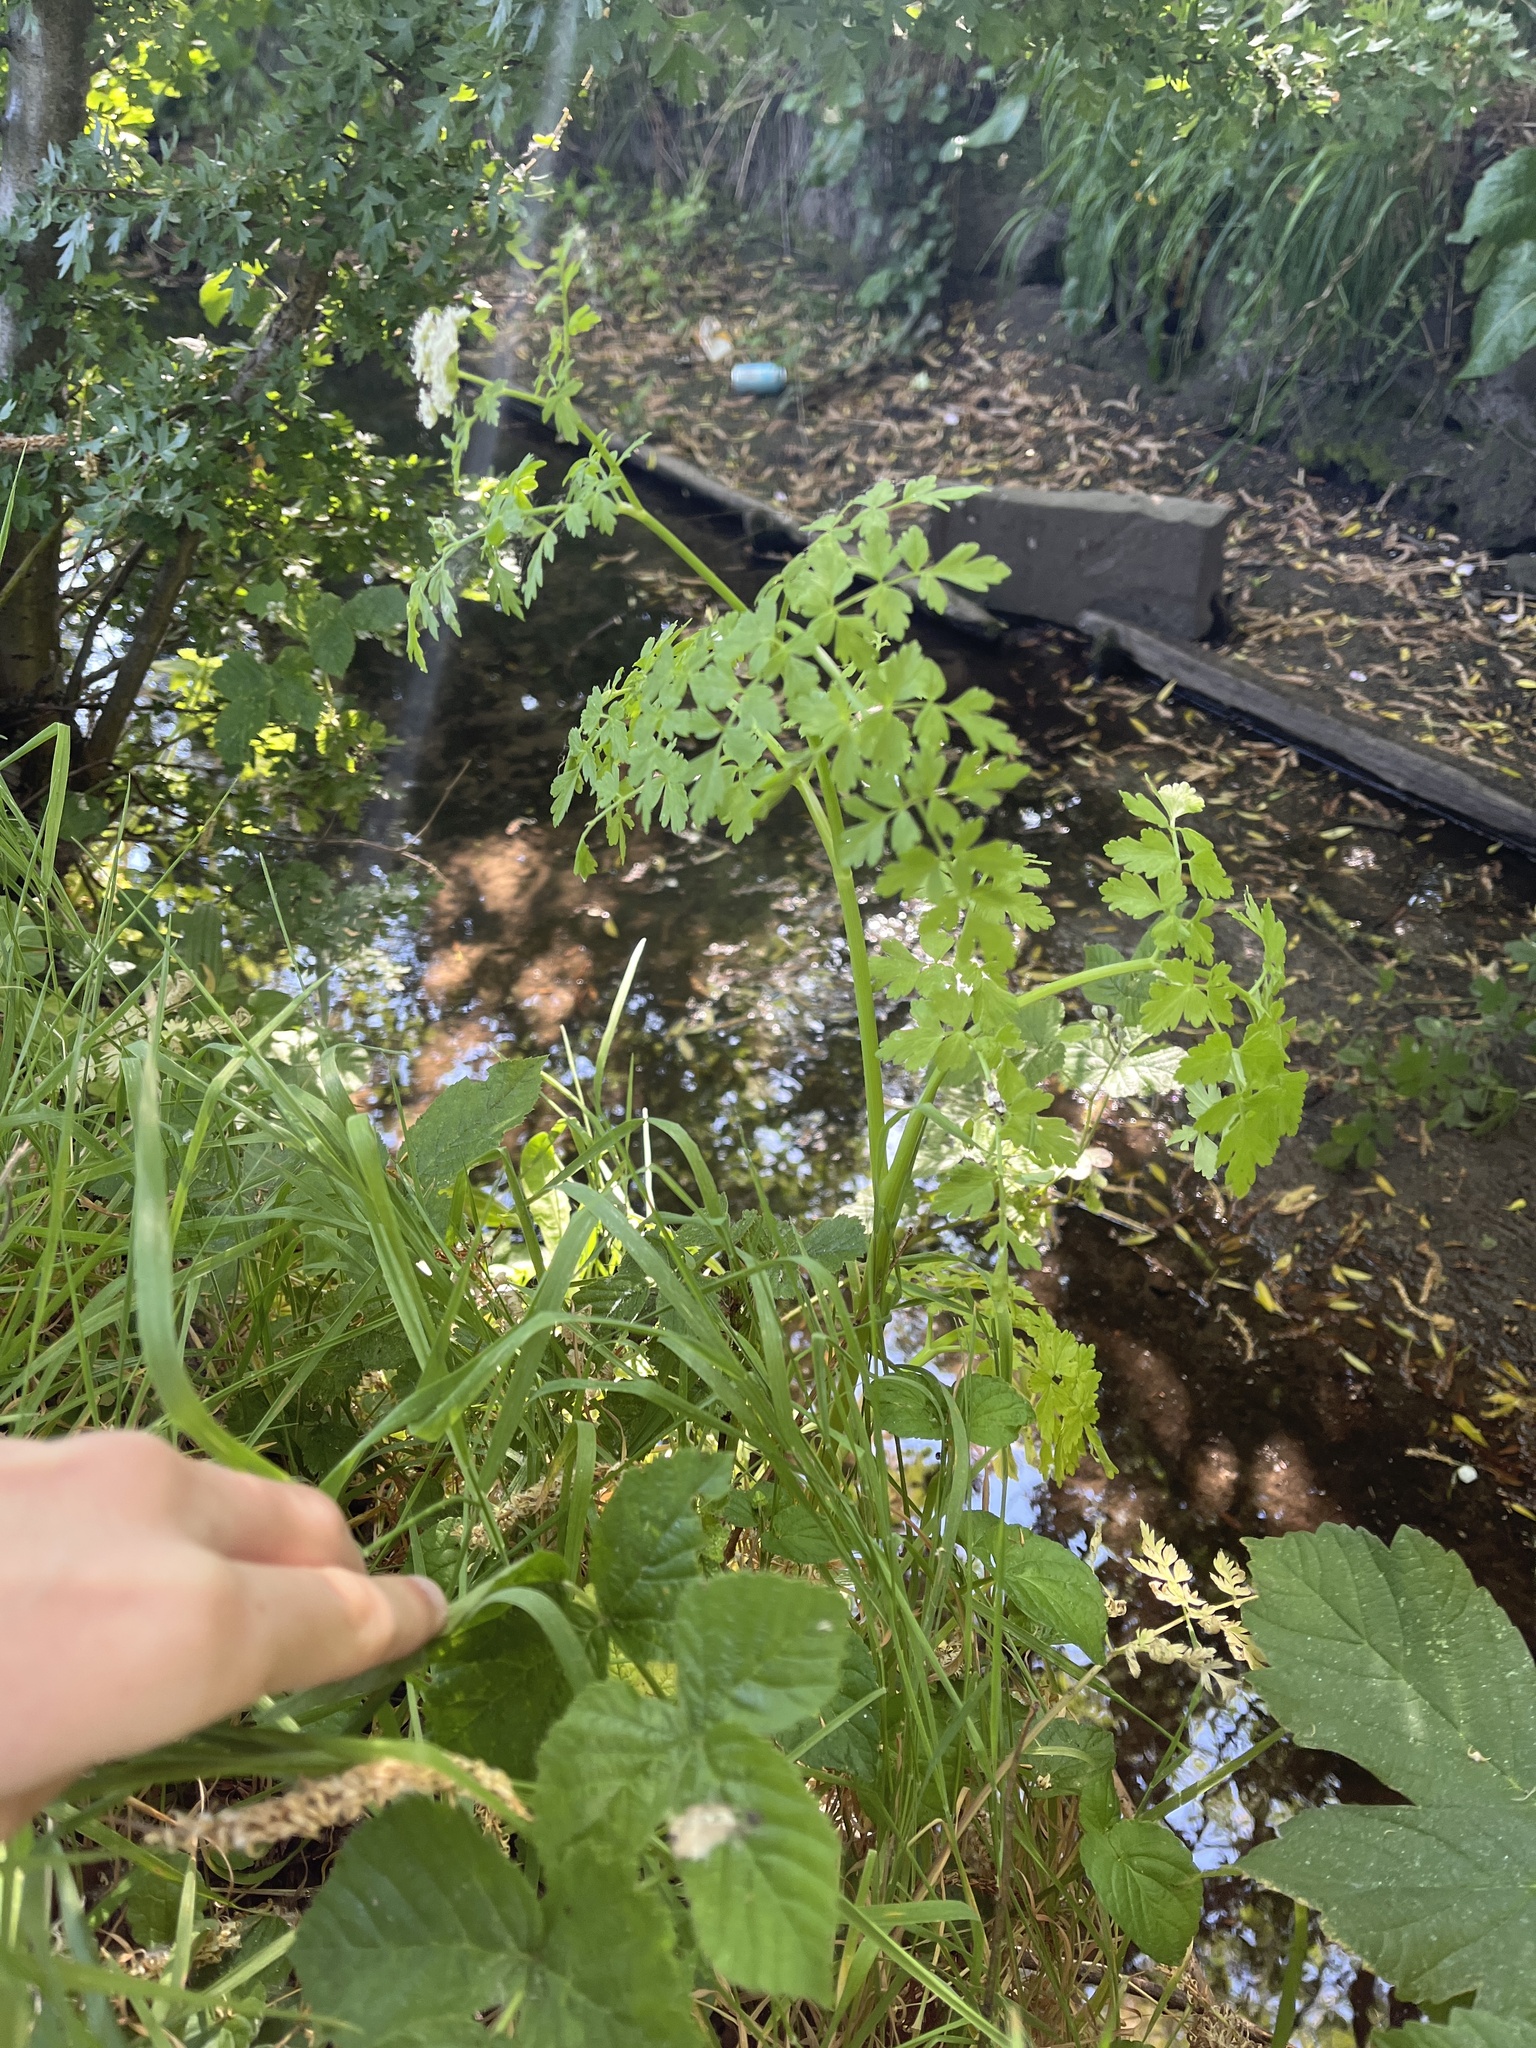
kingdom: Plantae
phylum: Tracheophyta
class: Magnoliopsida
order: Apiales
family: Apiaceae
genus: Oenanthe
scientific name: Oenanthe crocata
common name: Hemlock water-dropwort
